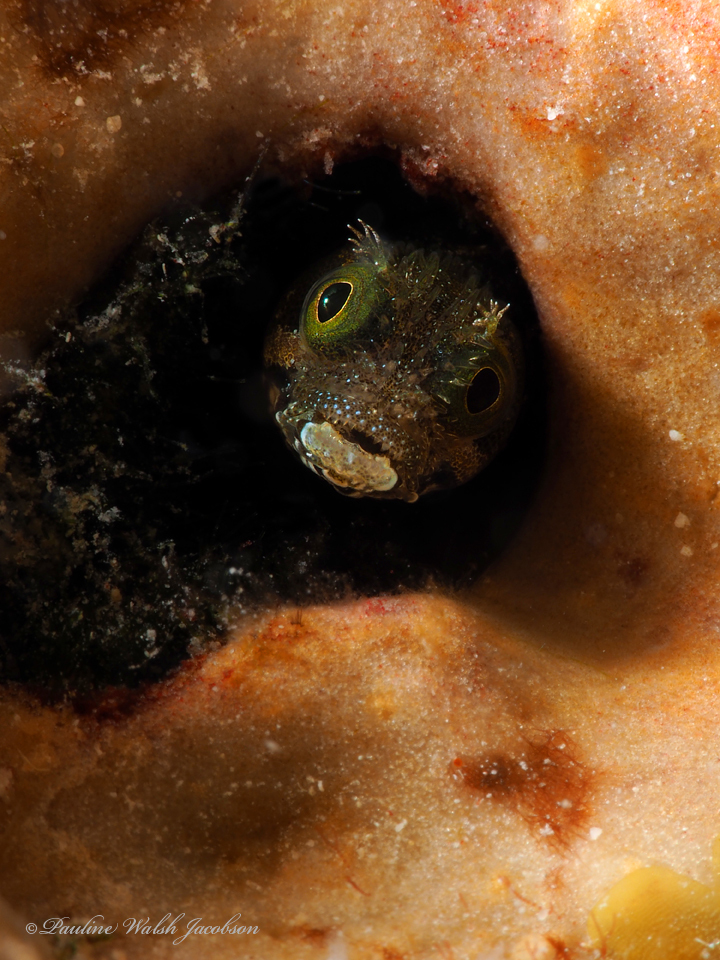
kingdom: Animalia
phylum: Chordata
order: Perciformes
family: Chaenopsidae
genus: Acanthemblemaria
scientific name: Acanthemblemaria spinosa
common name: Spinyhead blenny
